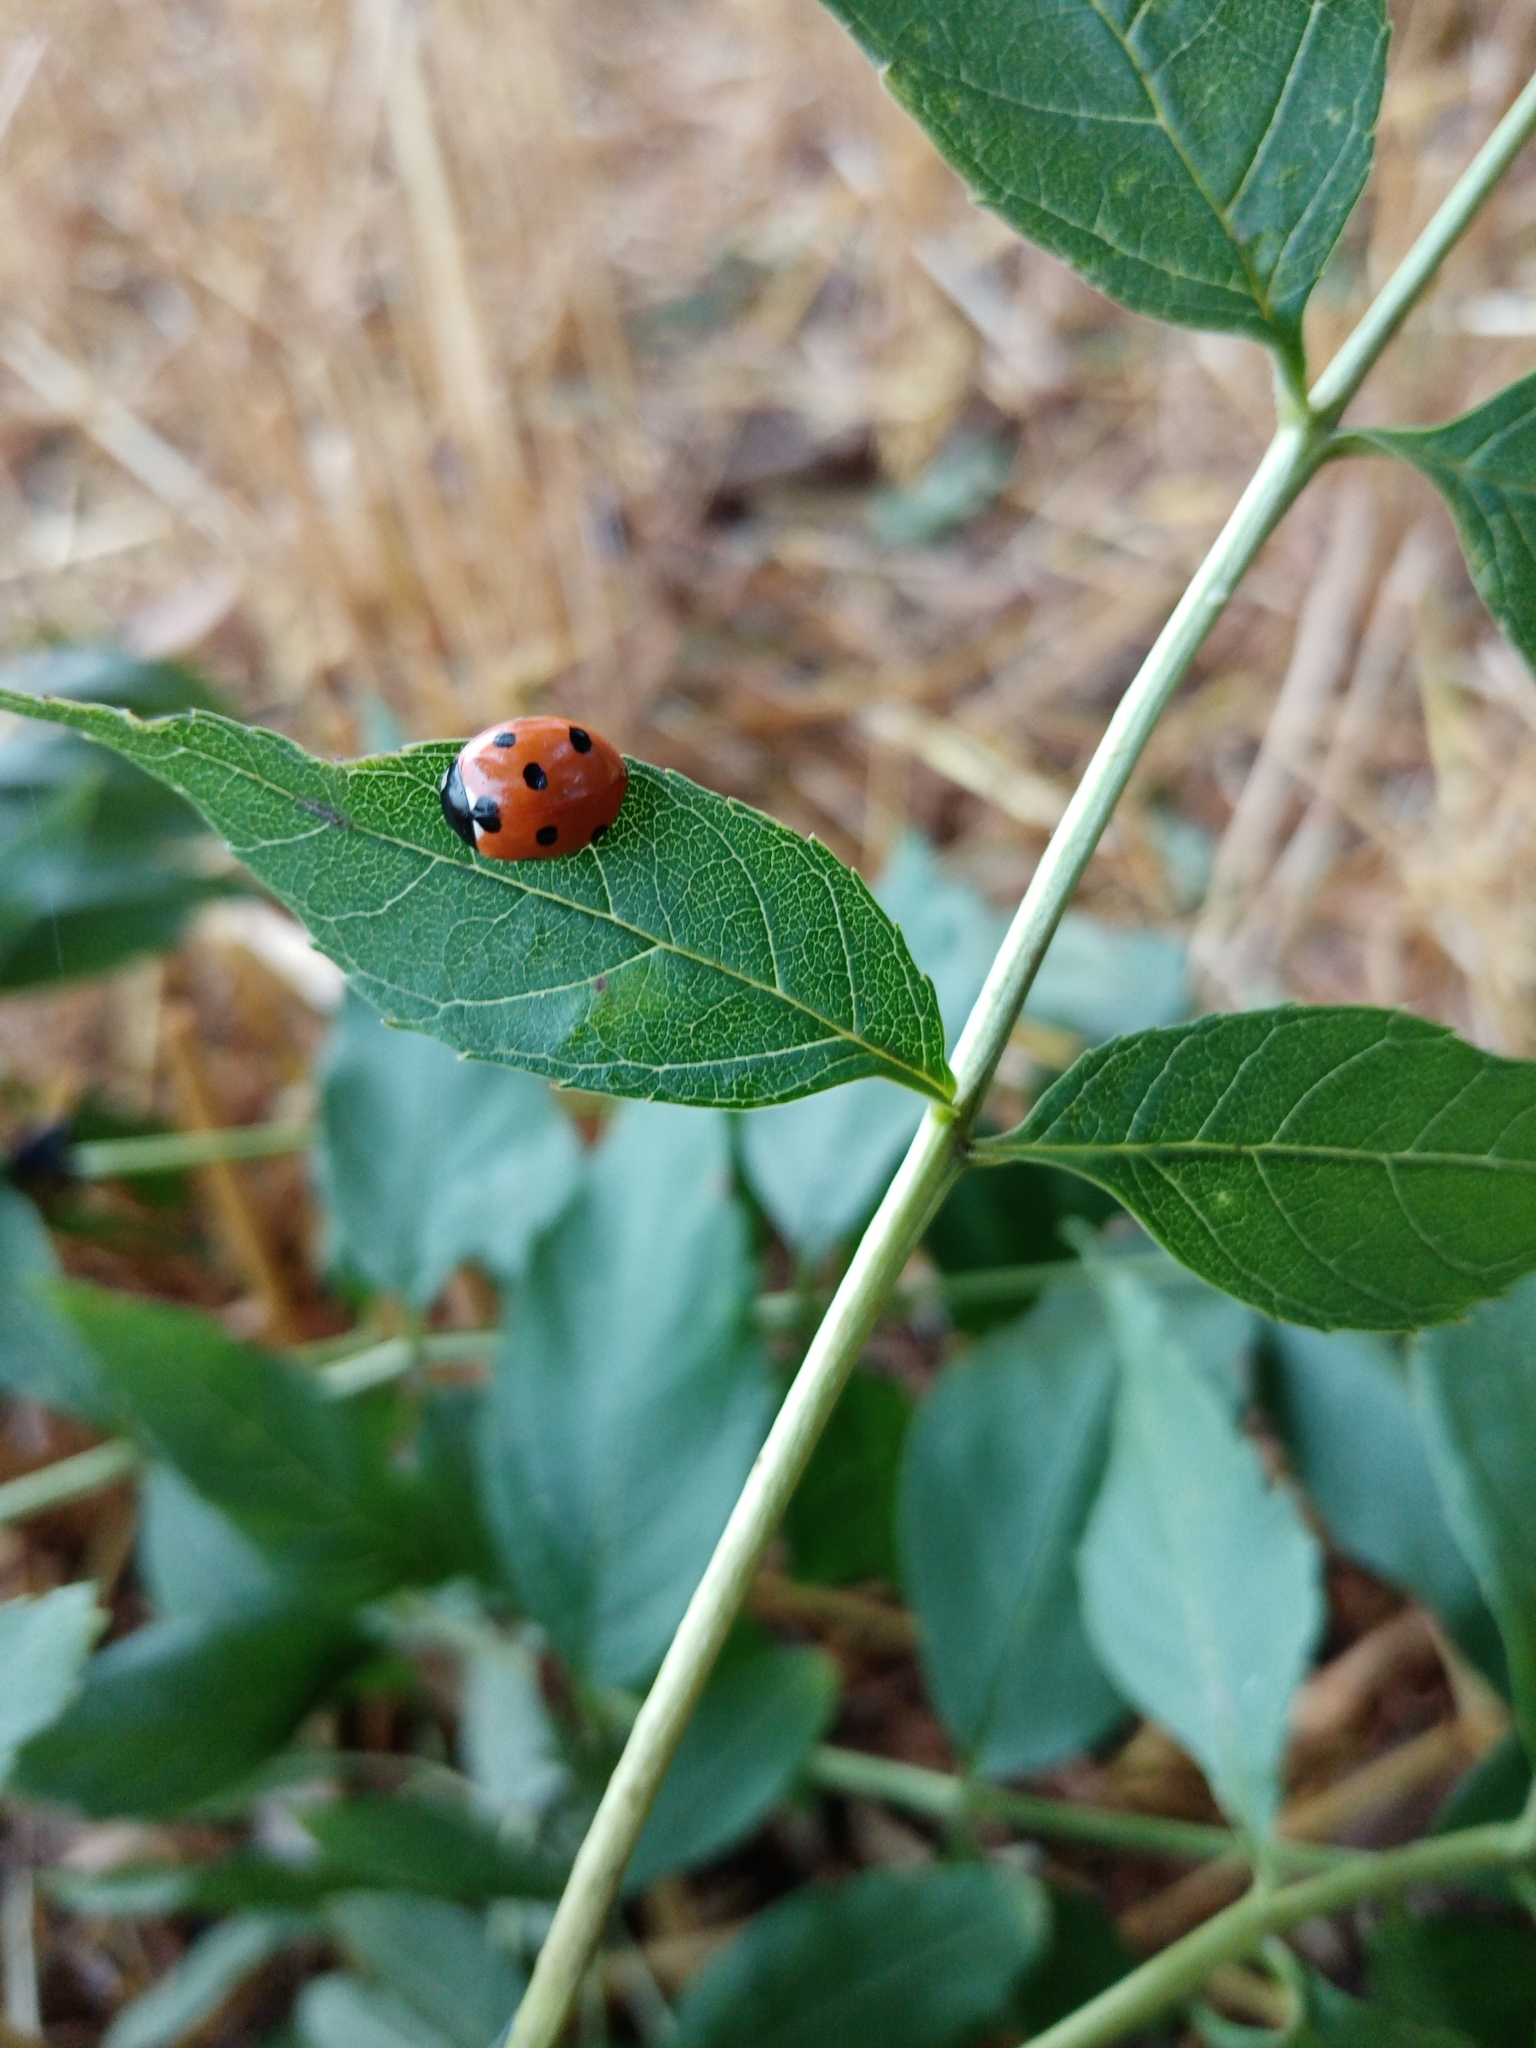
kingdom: Animalia
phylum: Arthropoda
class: Insecta
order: Coleoptera
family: Coccinellidae
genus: Coccinella
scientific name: Coccinella septempunctata
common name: Sevenspotted lady beetle
